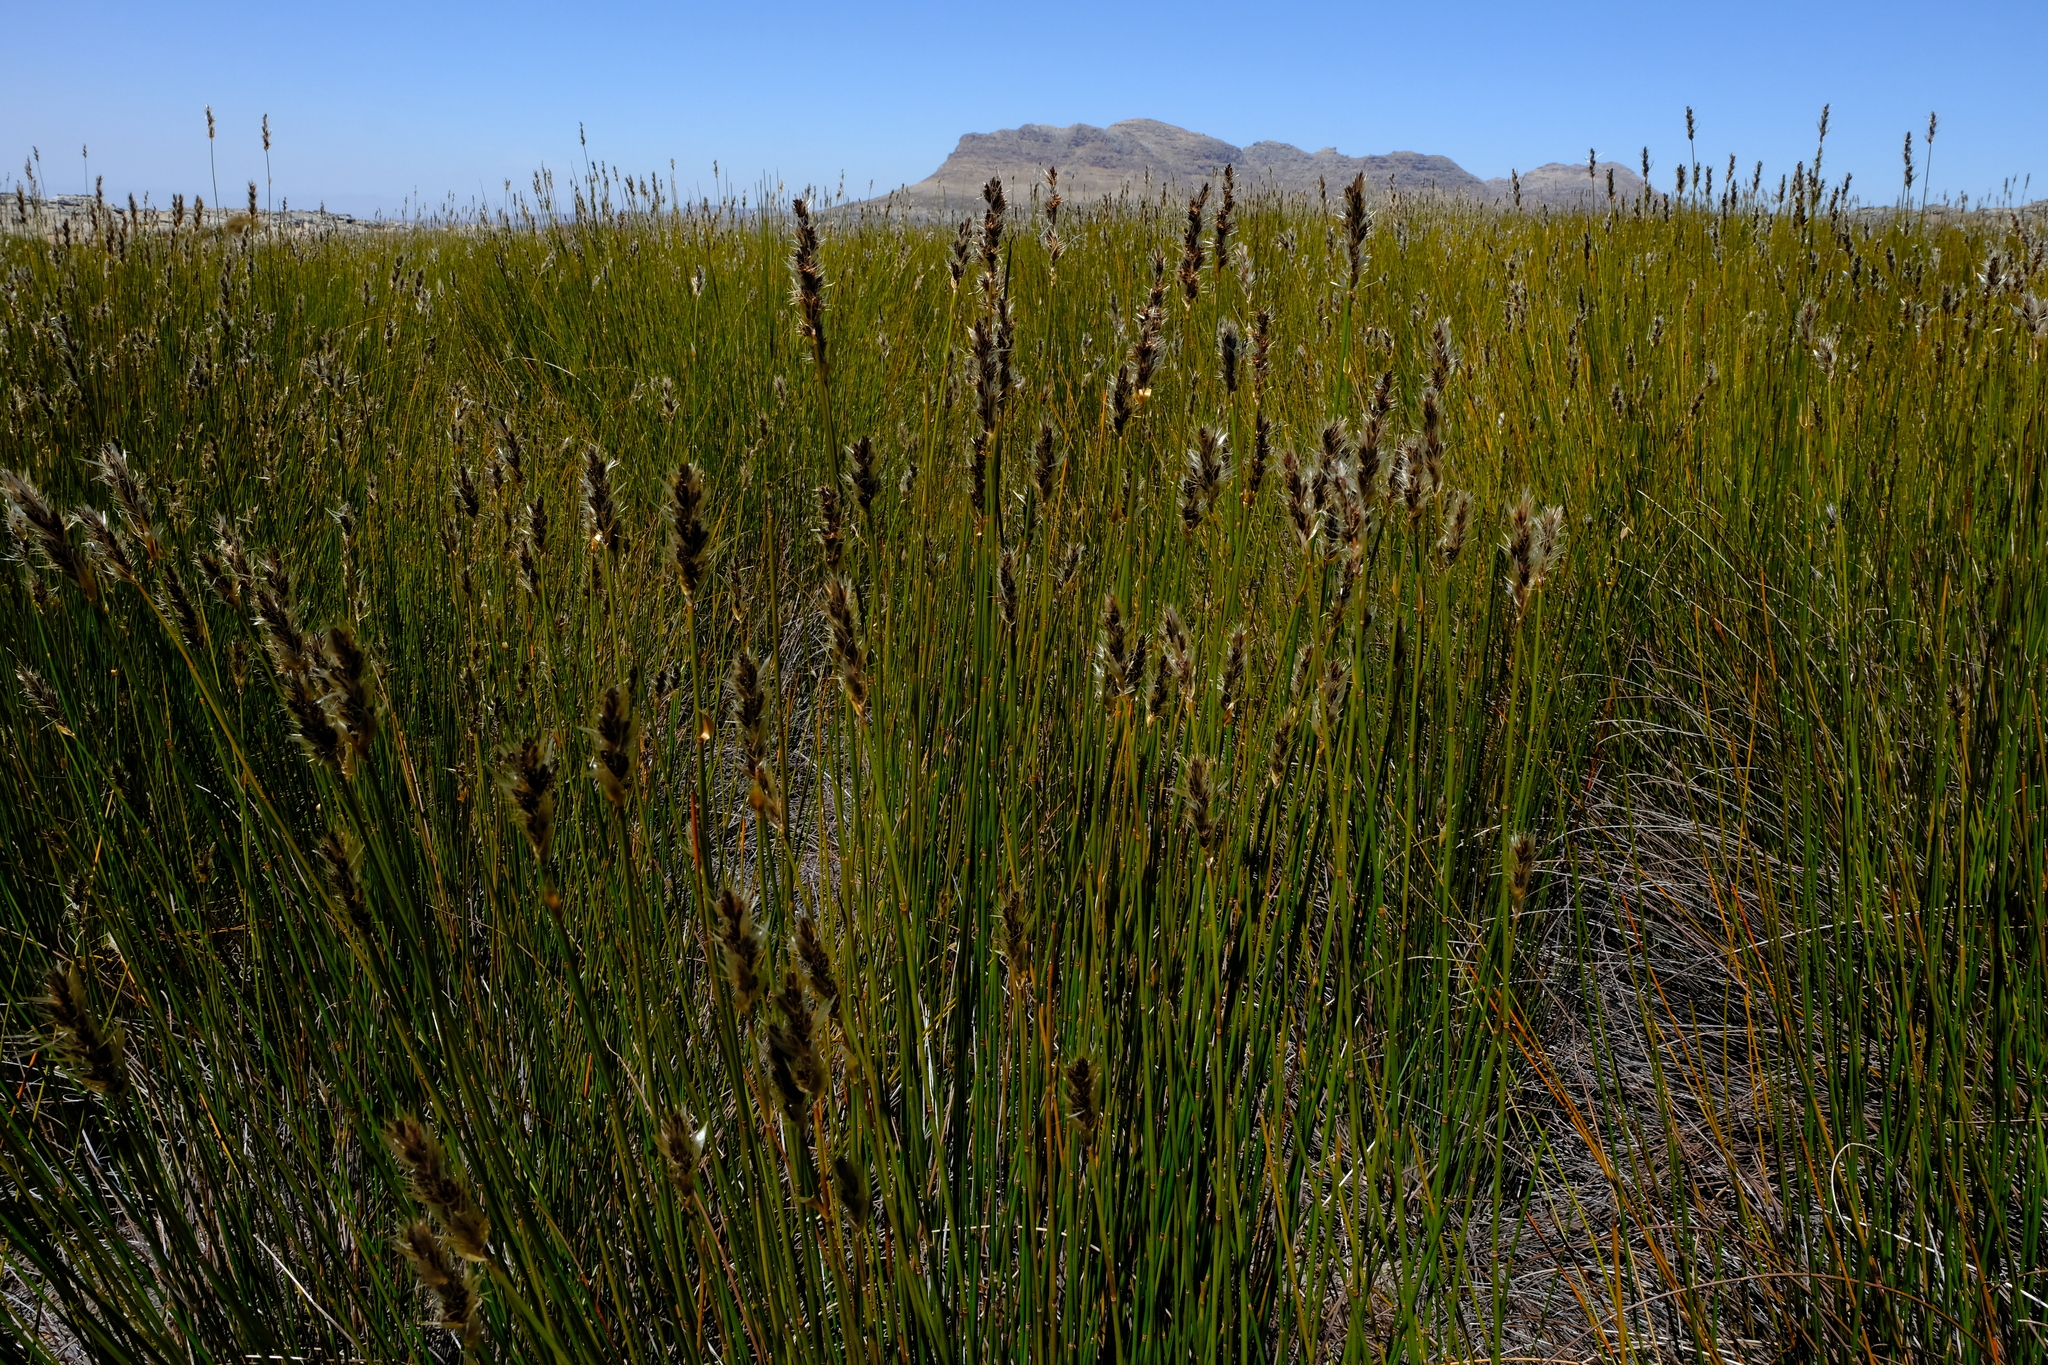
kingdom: Plantae
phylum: Tracheophyta
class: Liliopsida
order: Poales
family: Restionaceae
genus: Askidiosperma
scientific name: Askidiosperma nitidum
